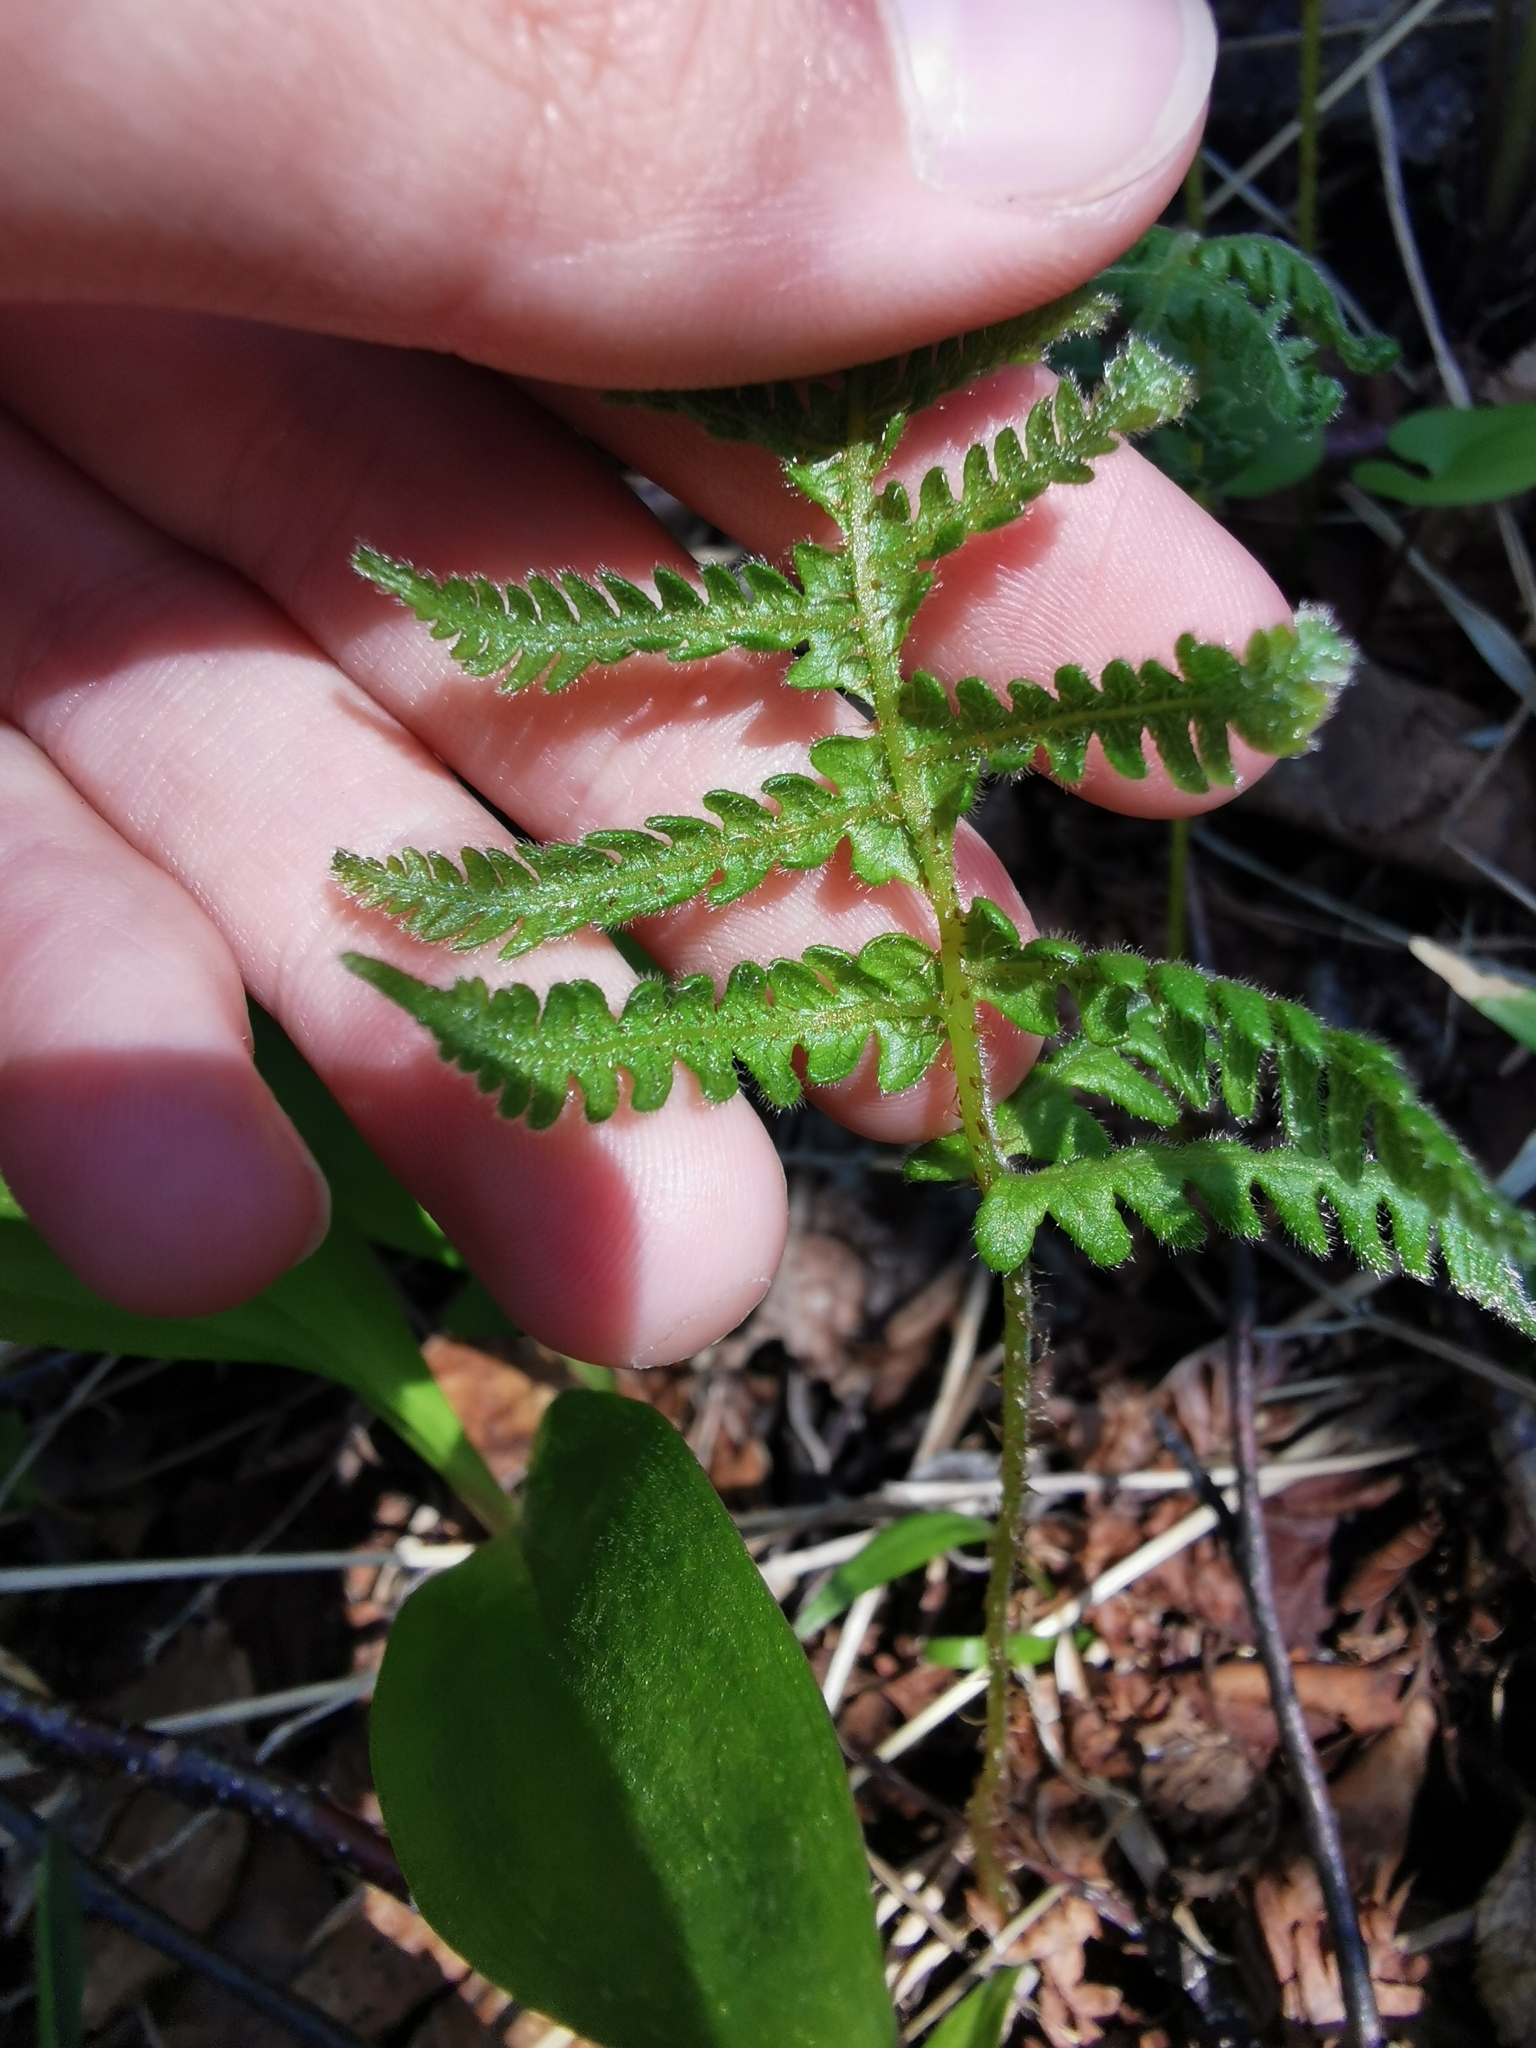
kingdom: Plantae
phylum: Tracheophyta
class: Polypodiopsida
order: Polypodiales
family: Thelypteridaceae
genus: Phegopteris
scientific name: Phegopteris connectilis
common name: Beech fern
